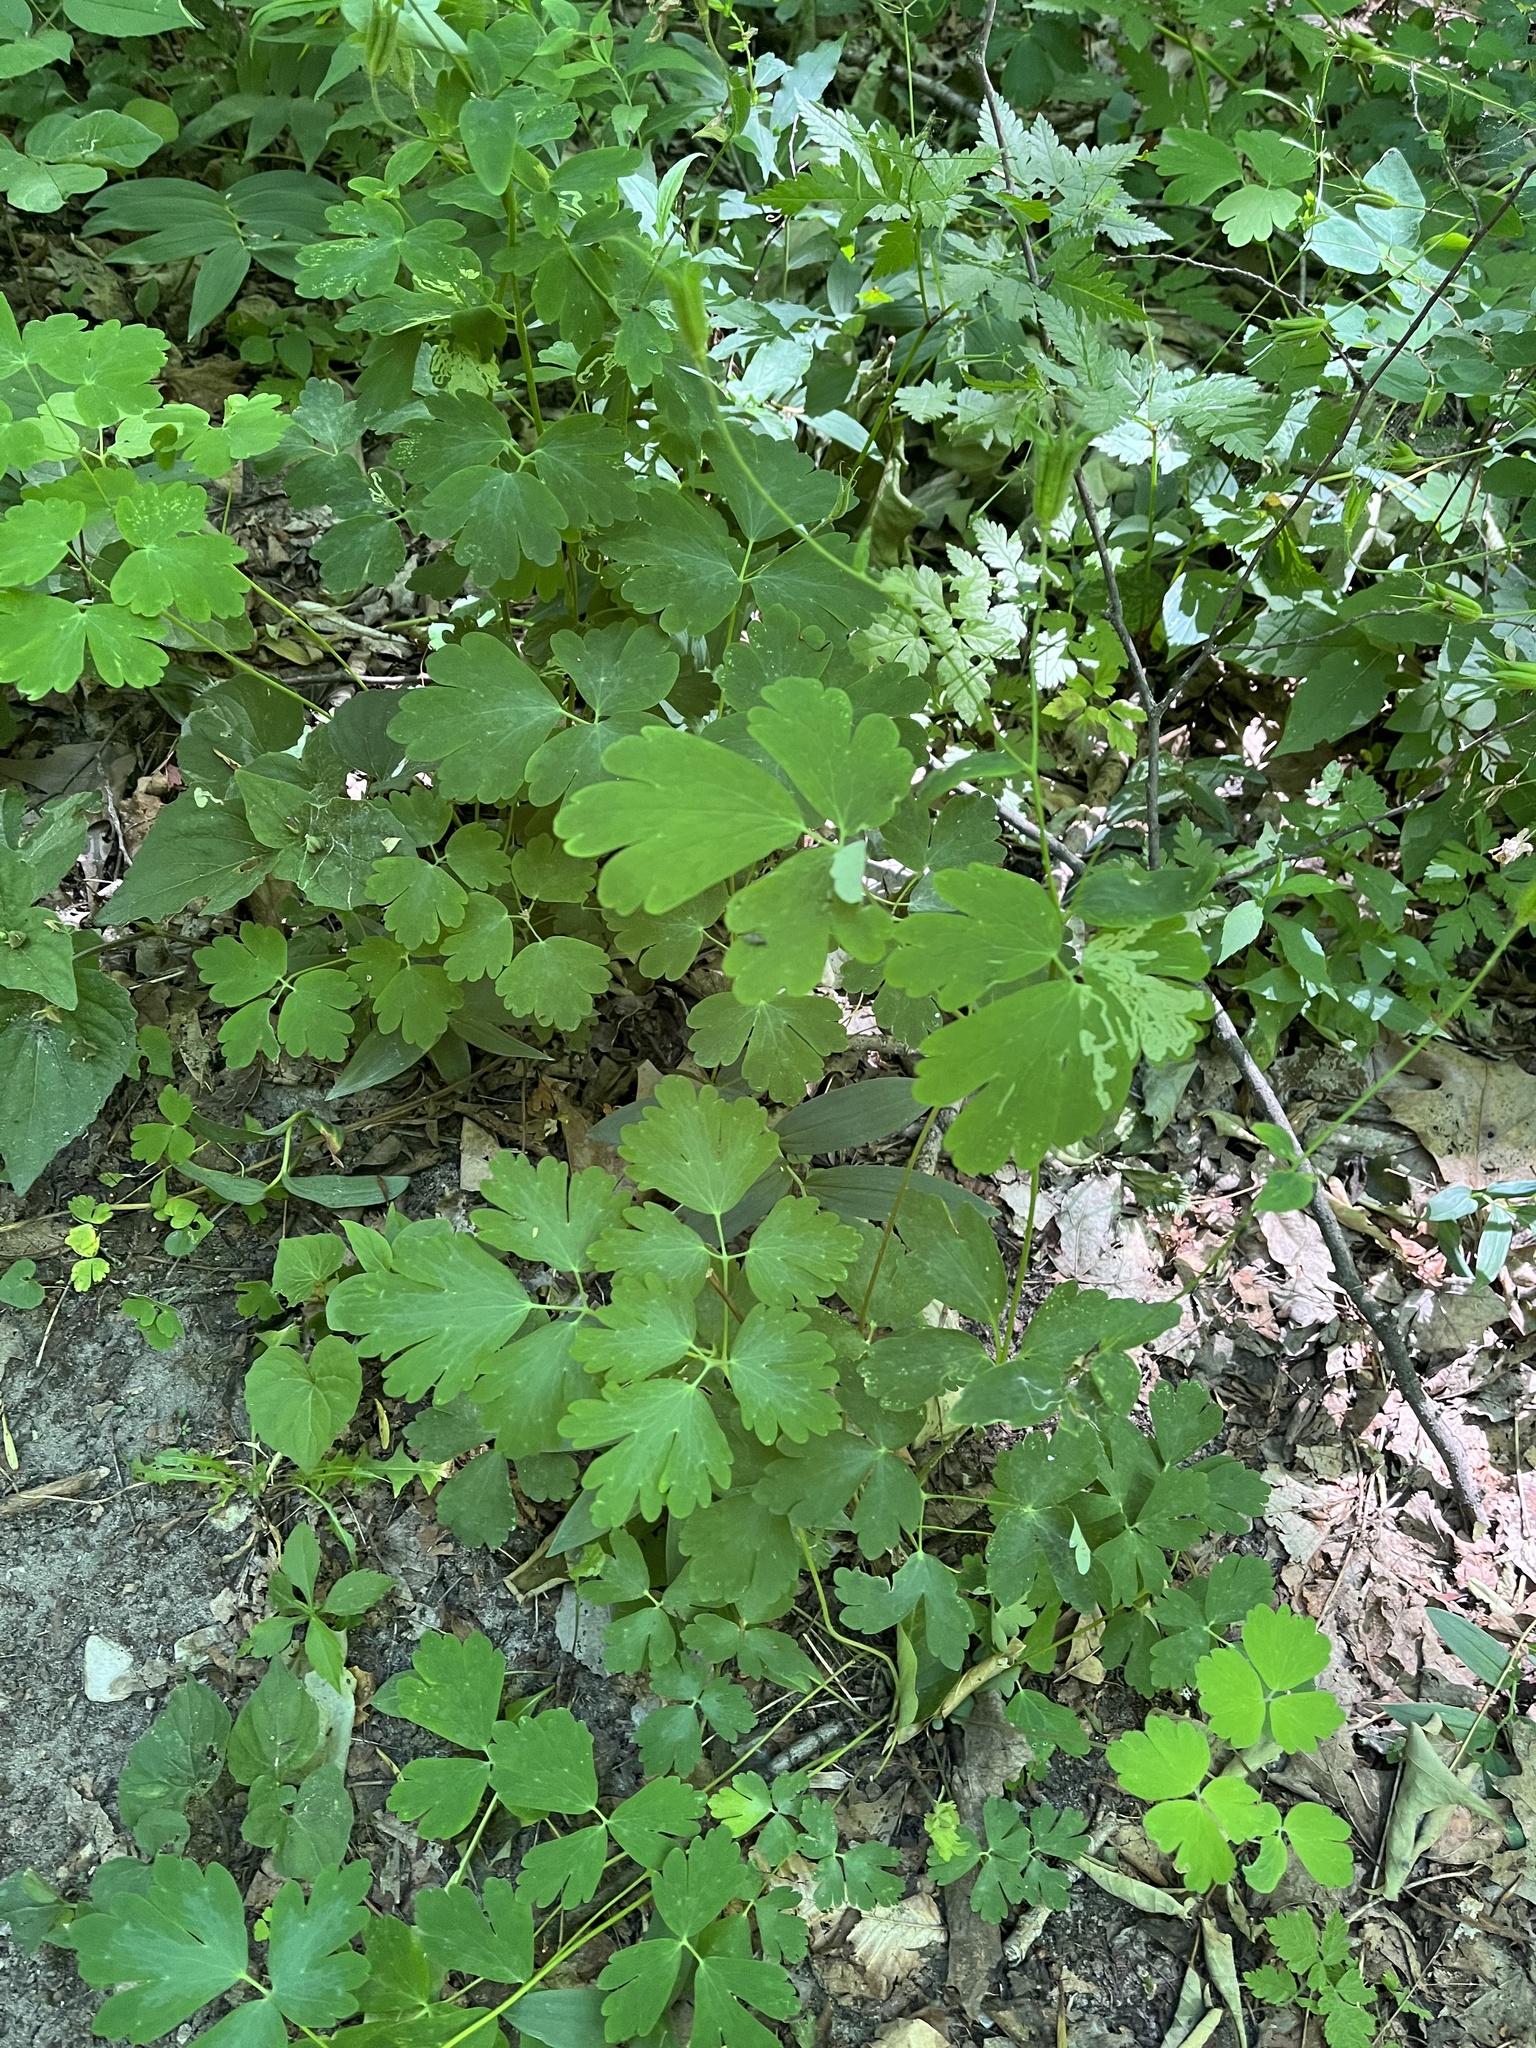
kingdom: Plantae
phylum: Tracheophyta
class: Magnoliopsida
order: Ranunculales
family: Ranunculaceae
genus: Aquilegia
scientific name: Aquilegia canadensis
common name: American columbine
